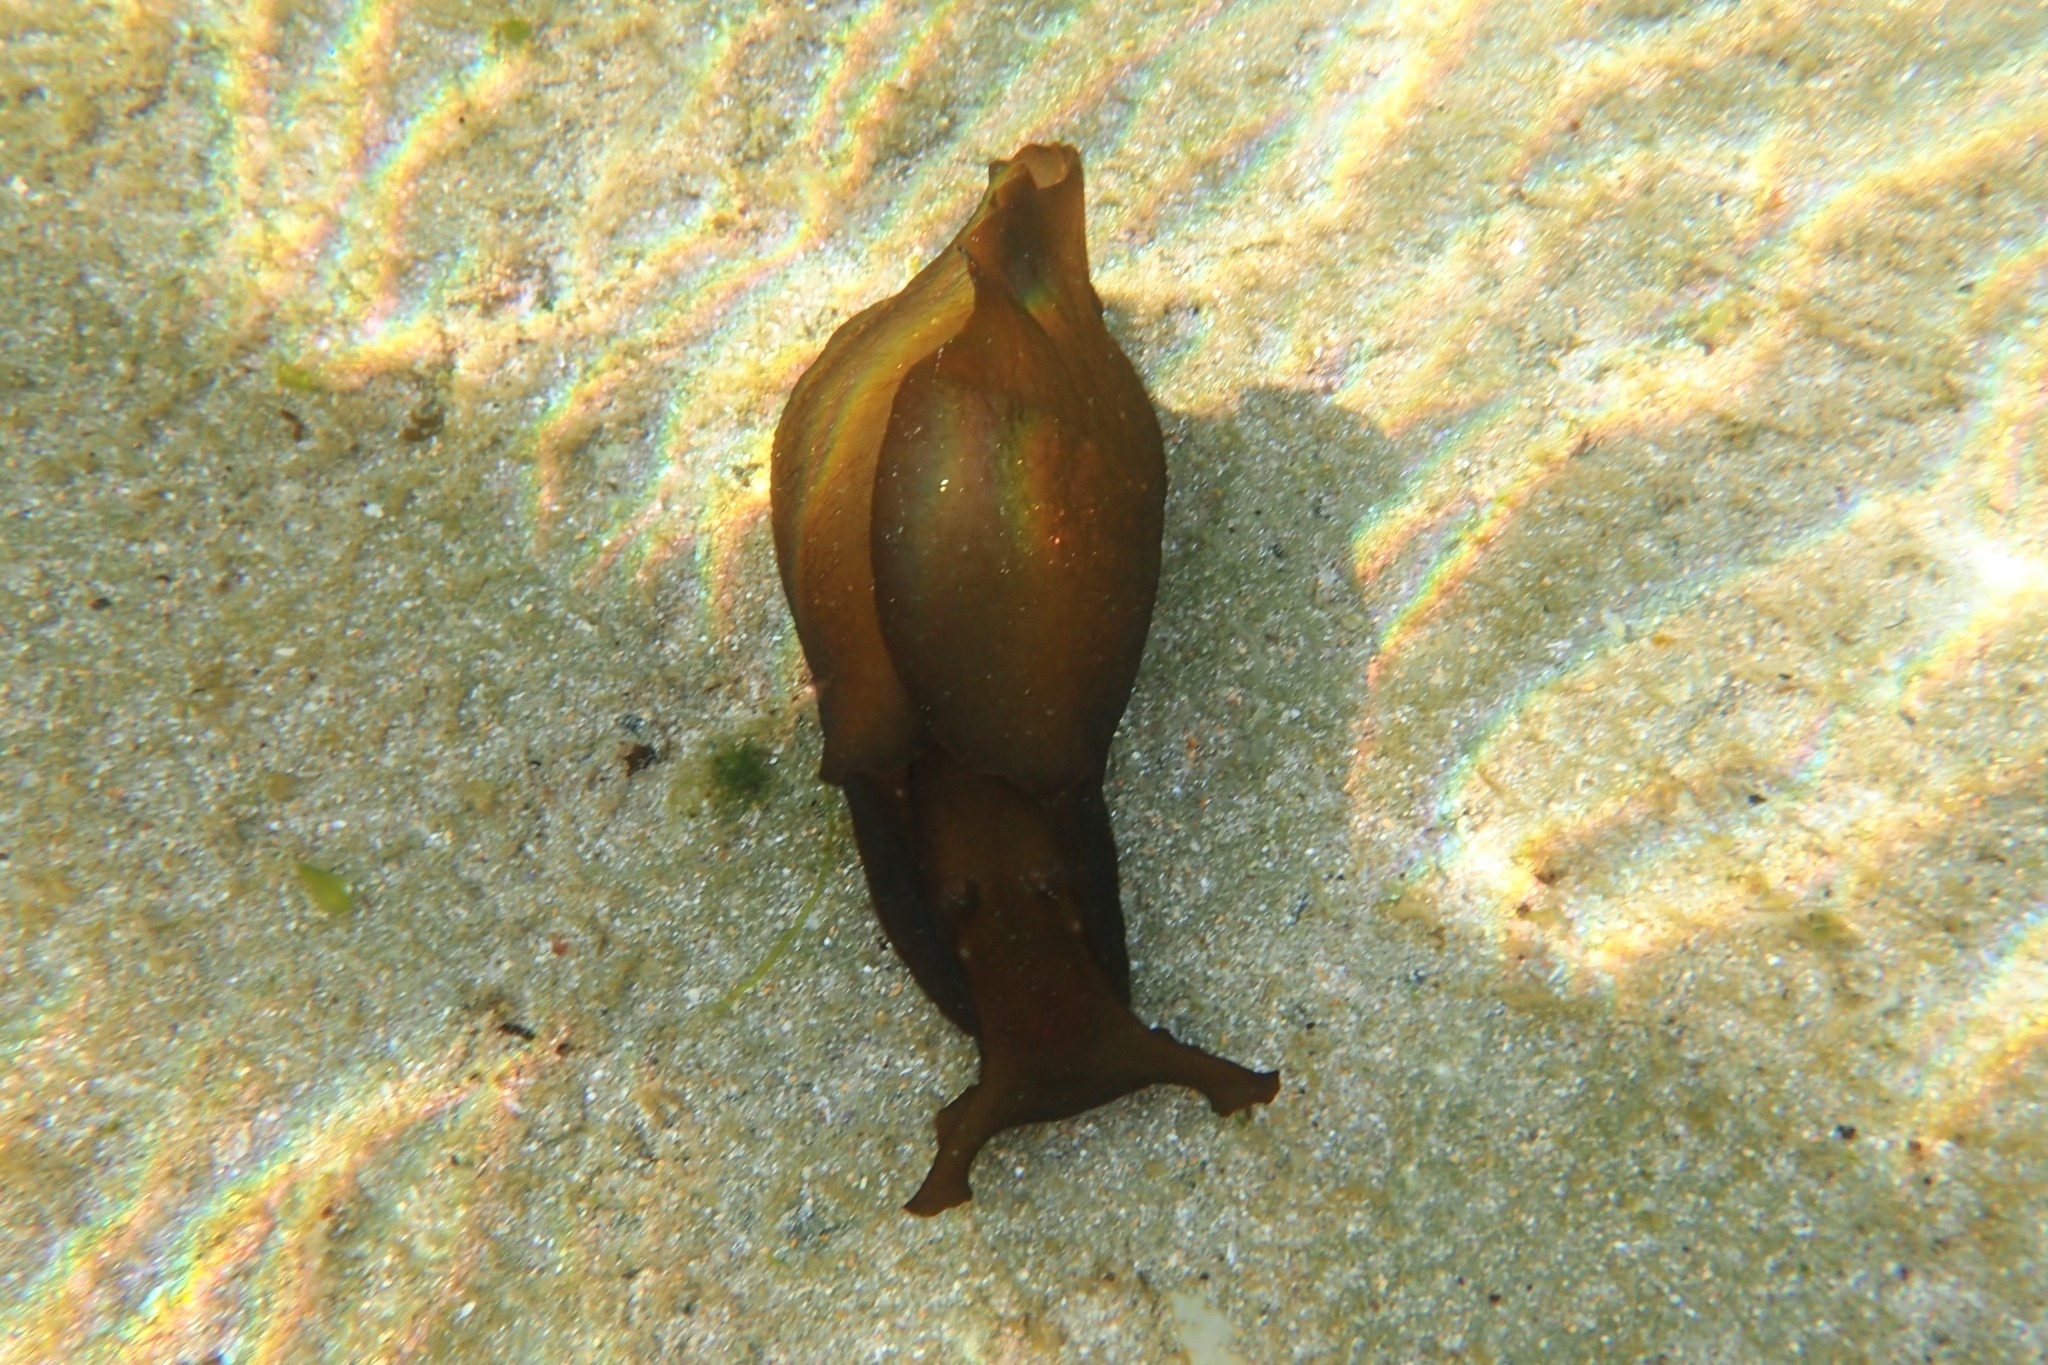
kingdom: Animalia
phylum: Mollusca
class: Gastropoda
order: Aplysiida
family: Aplysiidae
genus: Aplysia
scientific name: Aplysia juliana
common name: Walking sea hare
